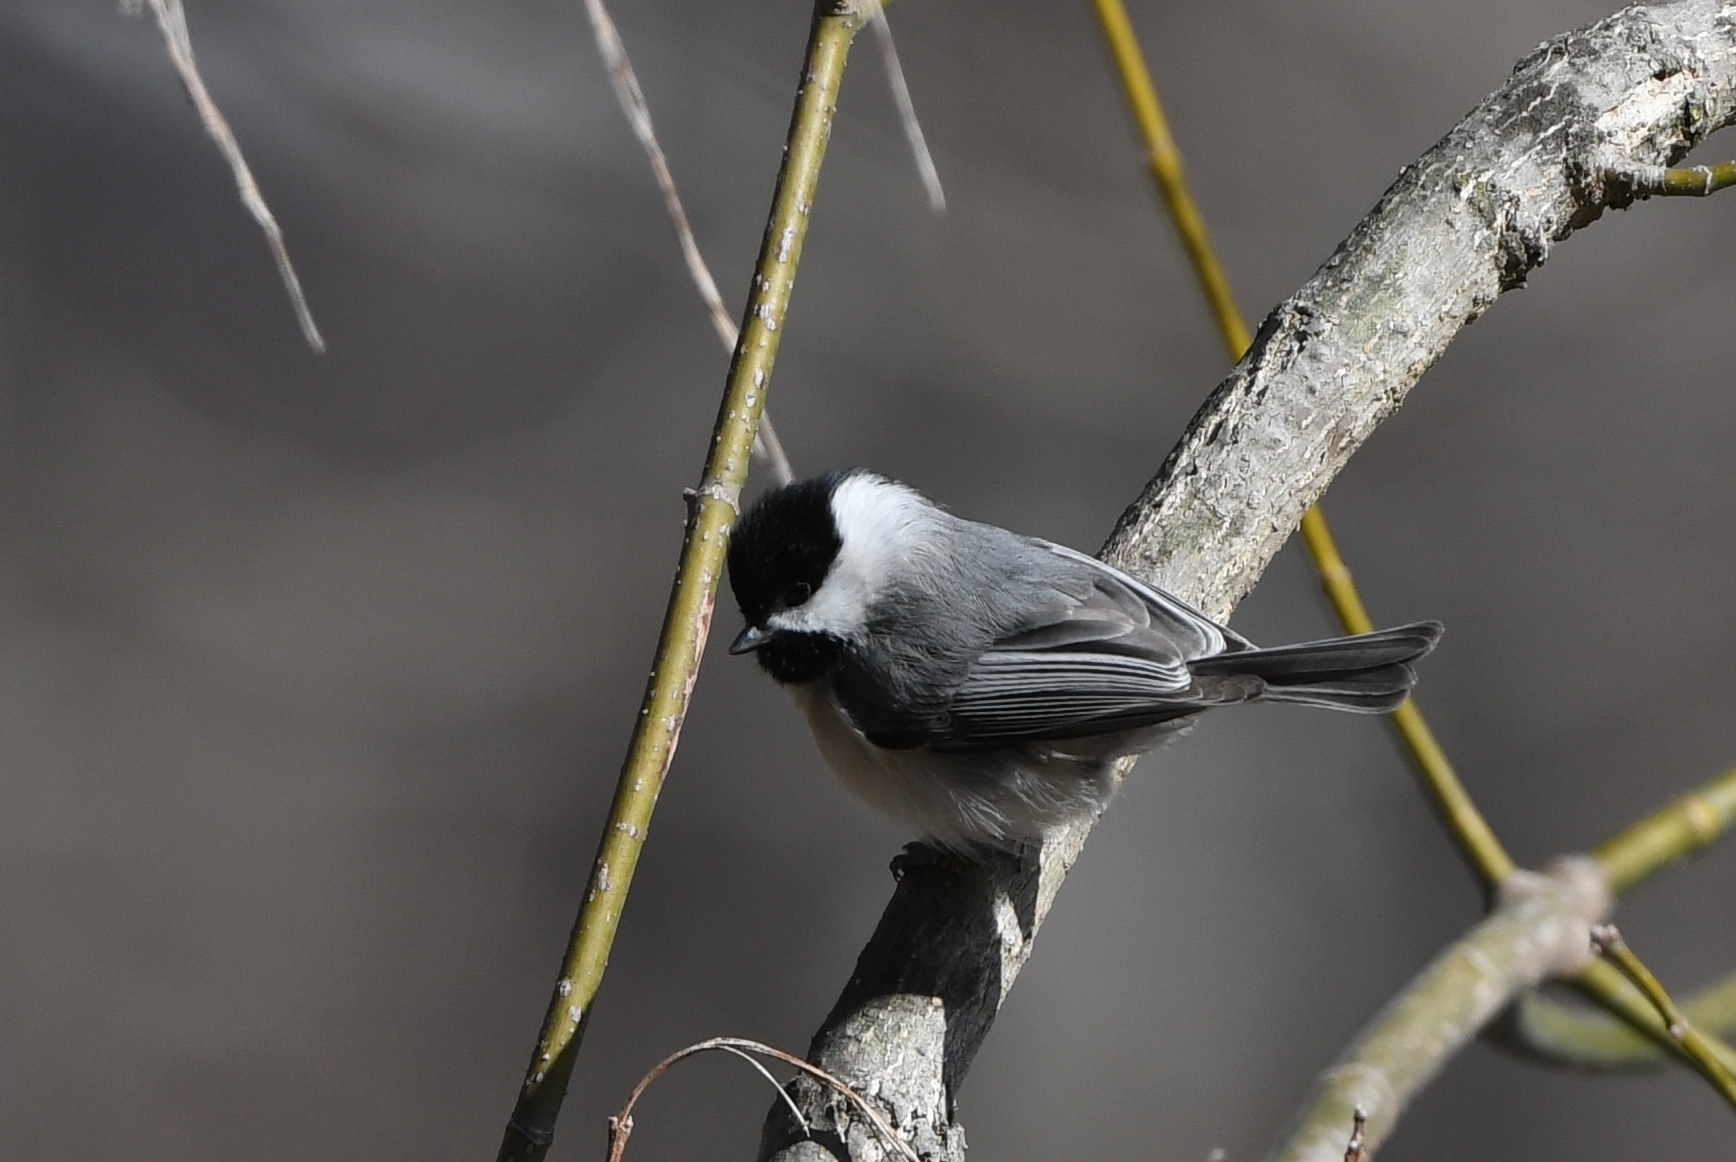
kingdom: Animalia
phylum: Chordata
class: Aves
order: Passeriformes
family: Paridae
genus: Poecile
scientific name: Poecile carolinensis
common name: Carolina chickadee
